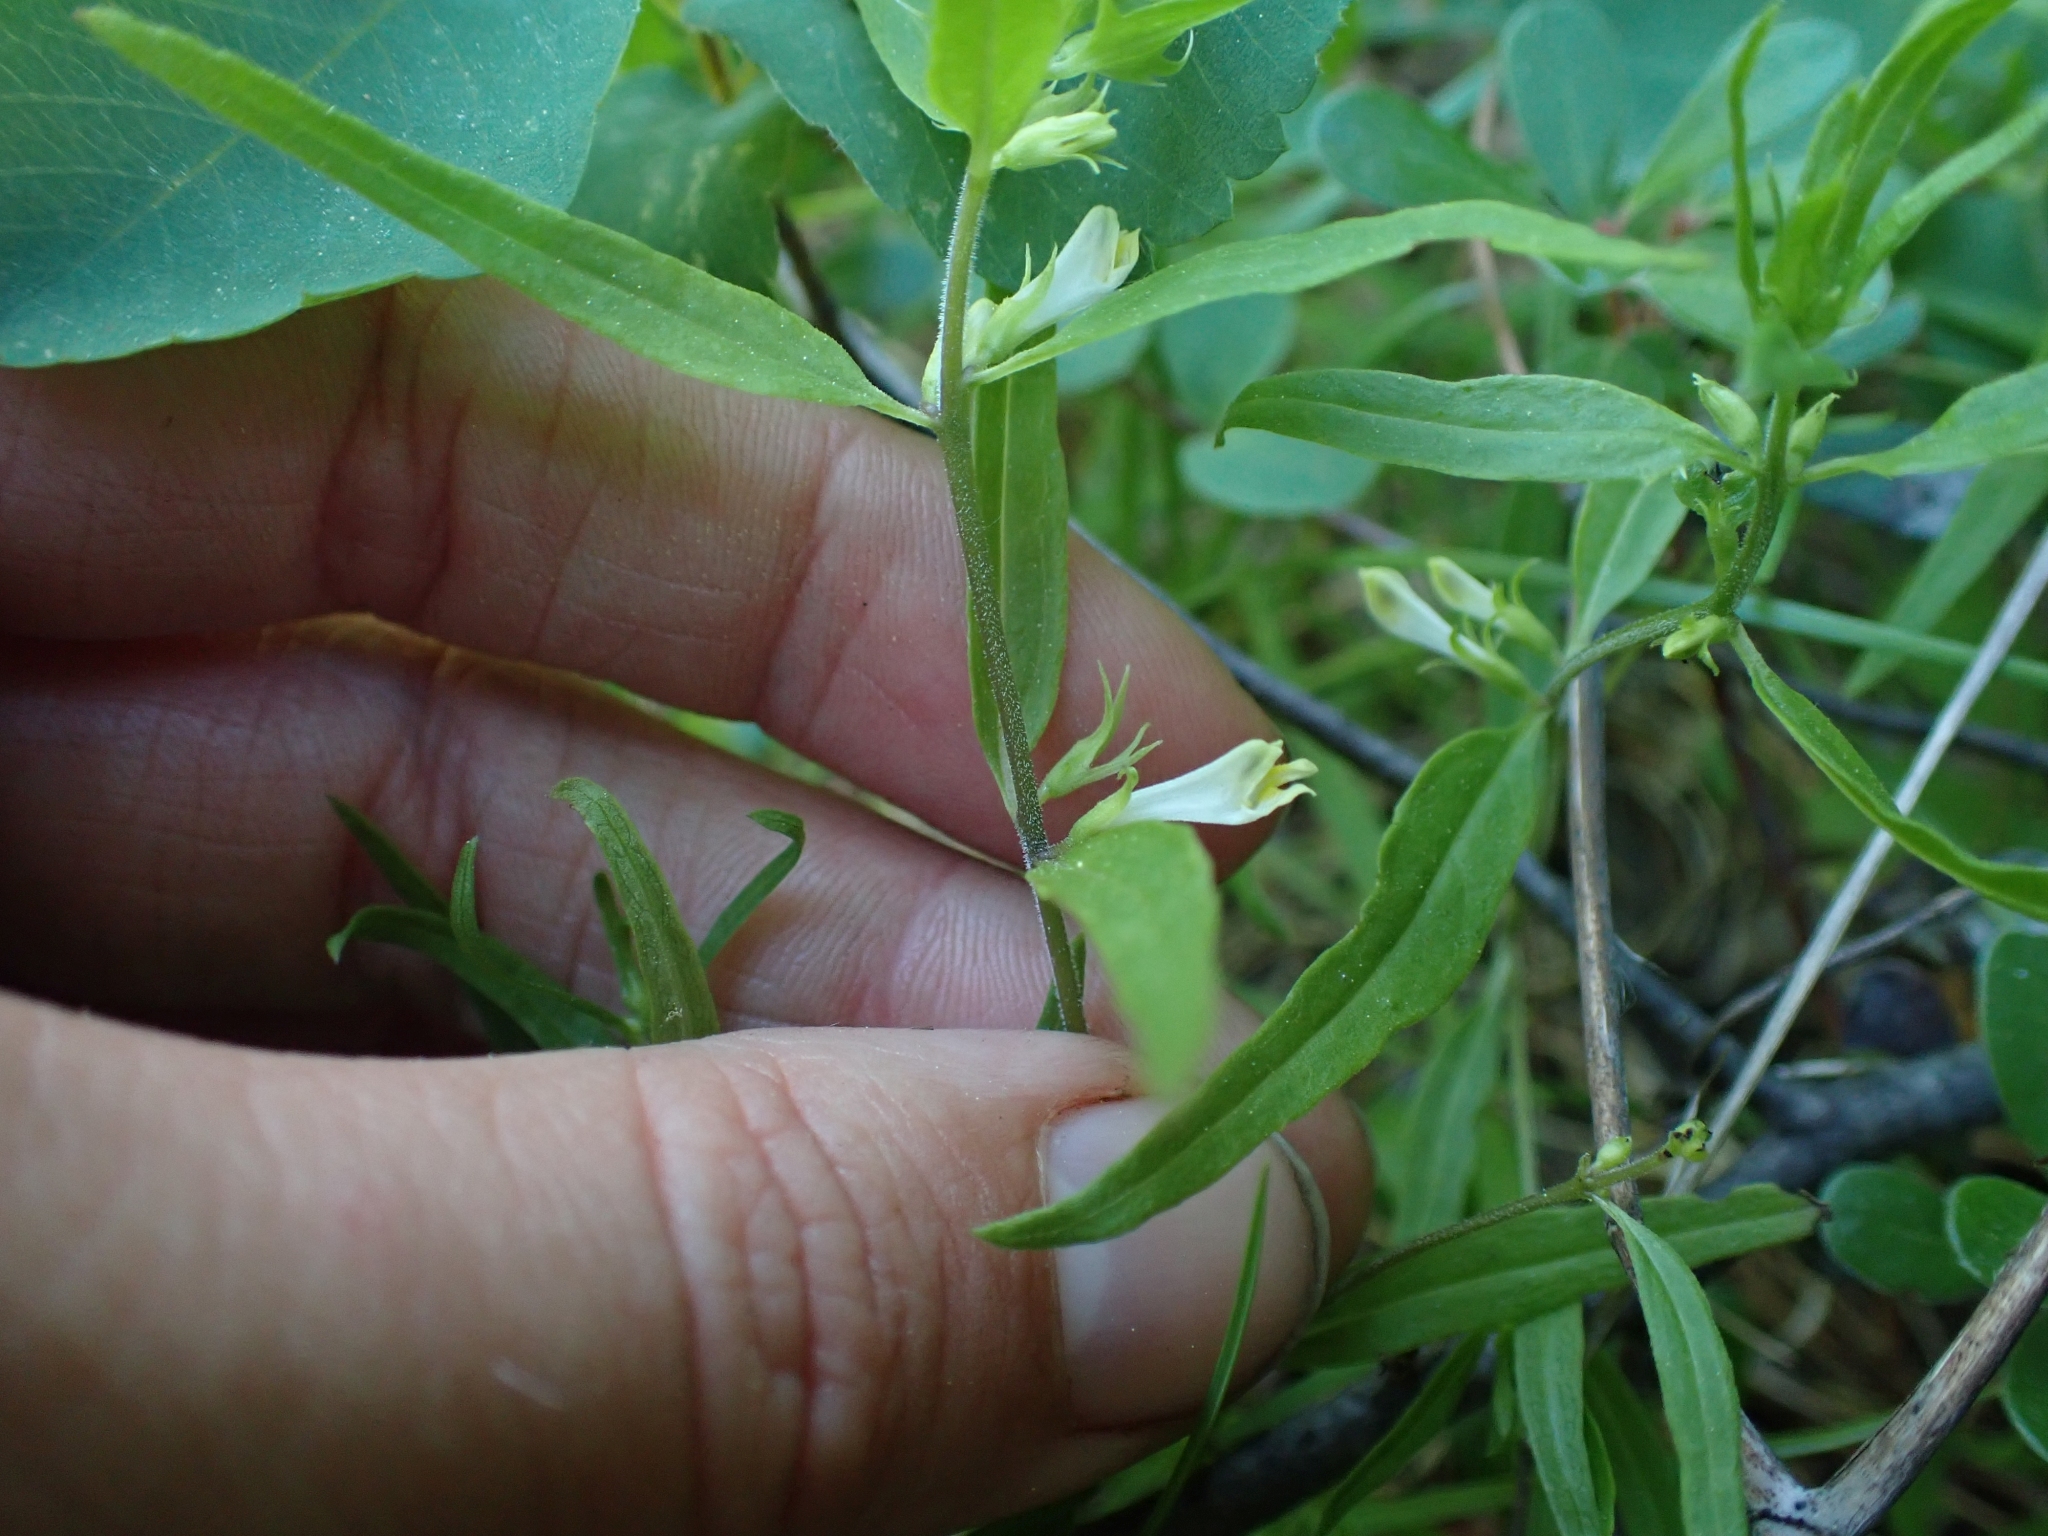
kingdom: Plantae
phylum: Tracheophyta
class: Magnoliopsida
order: Lamiales
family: Orobanchaceae
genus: Melampyrum
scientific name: Melampyrum lineare
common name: American cow-wheat
